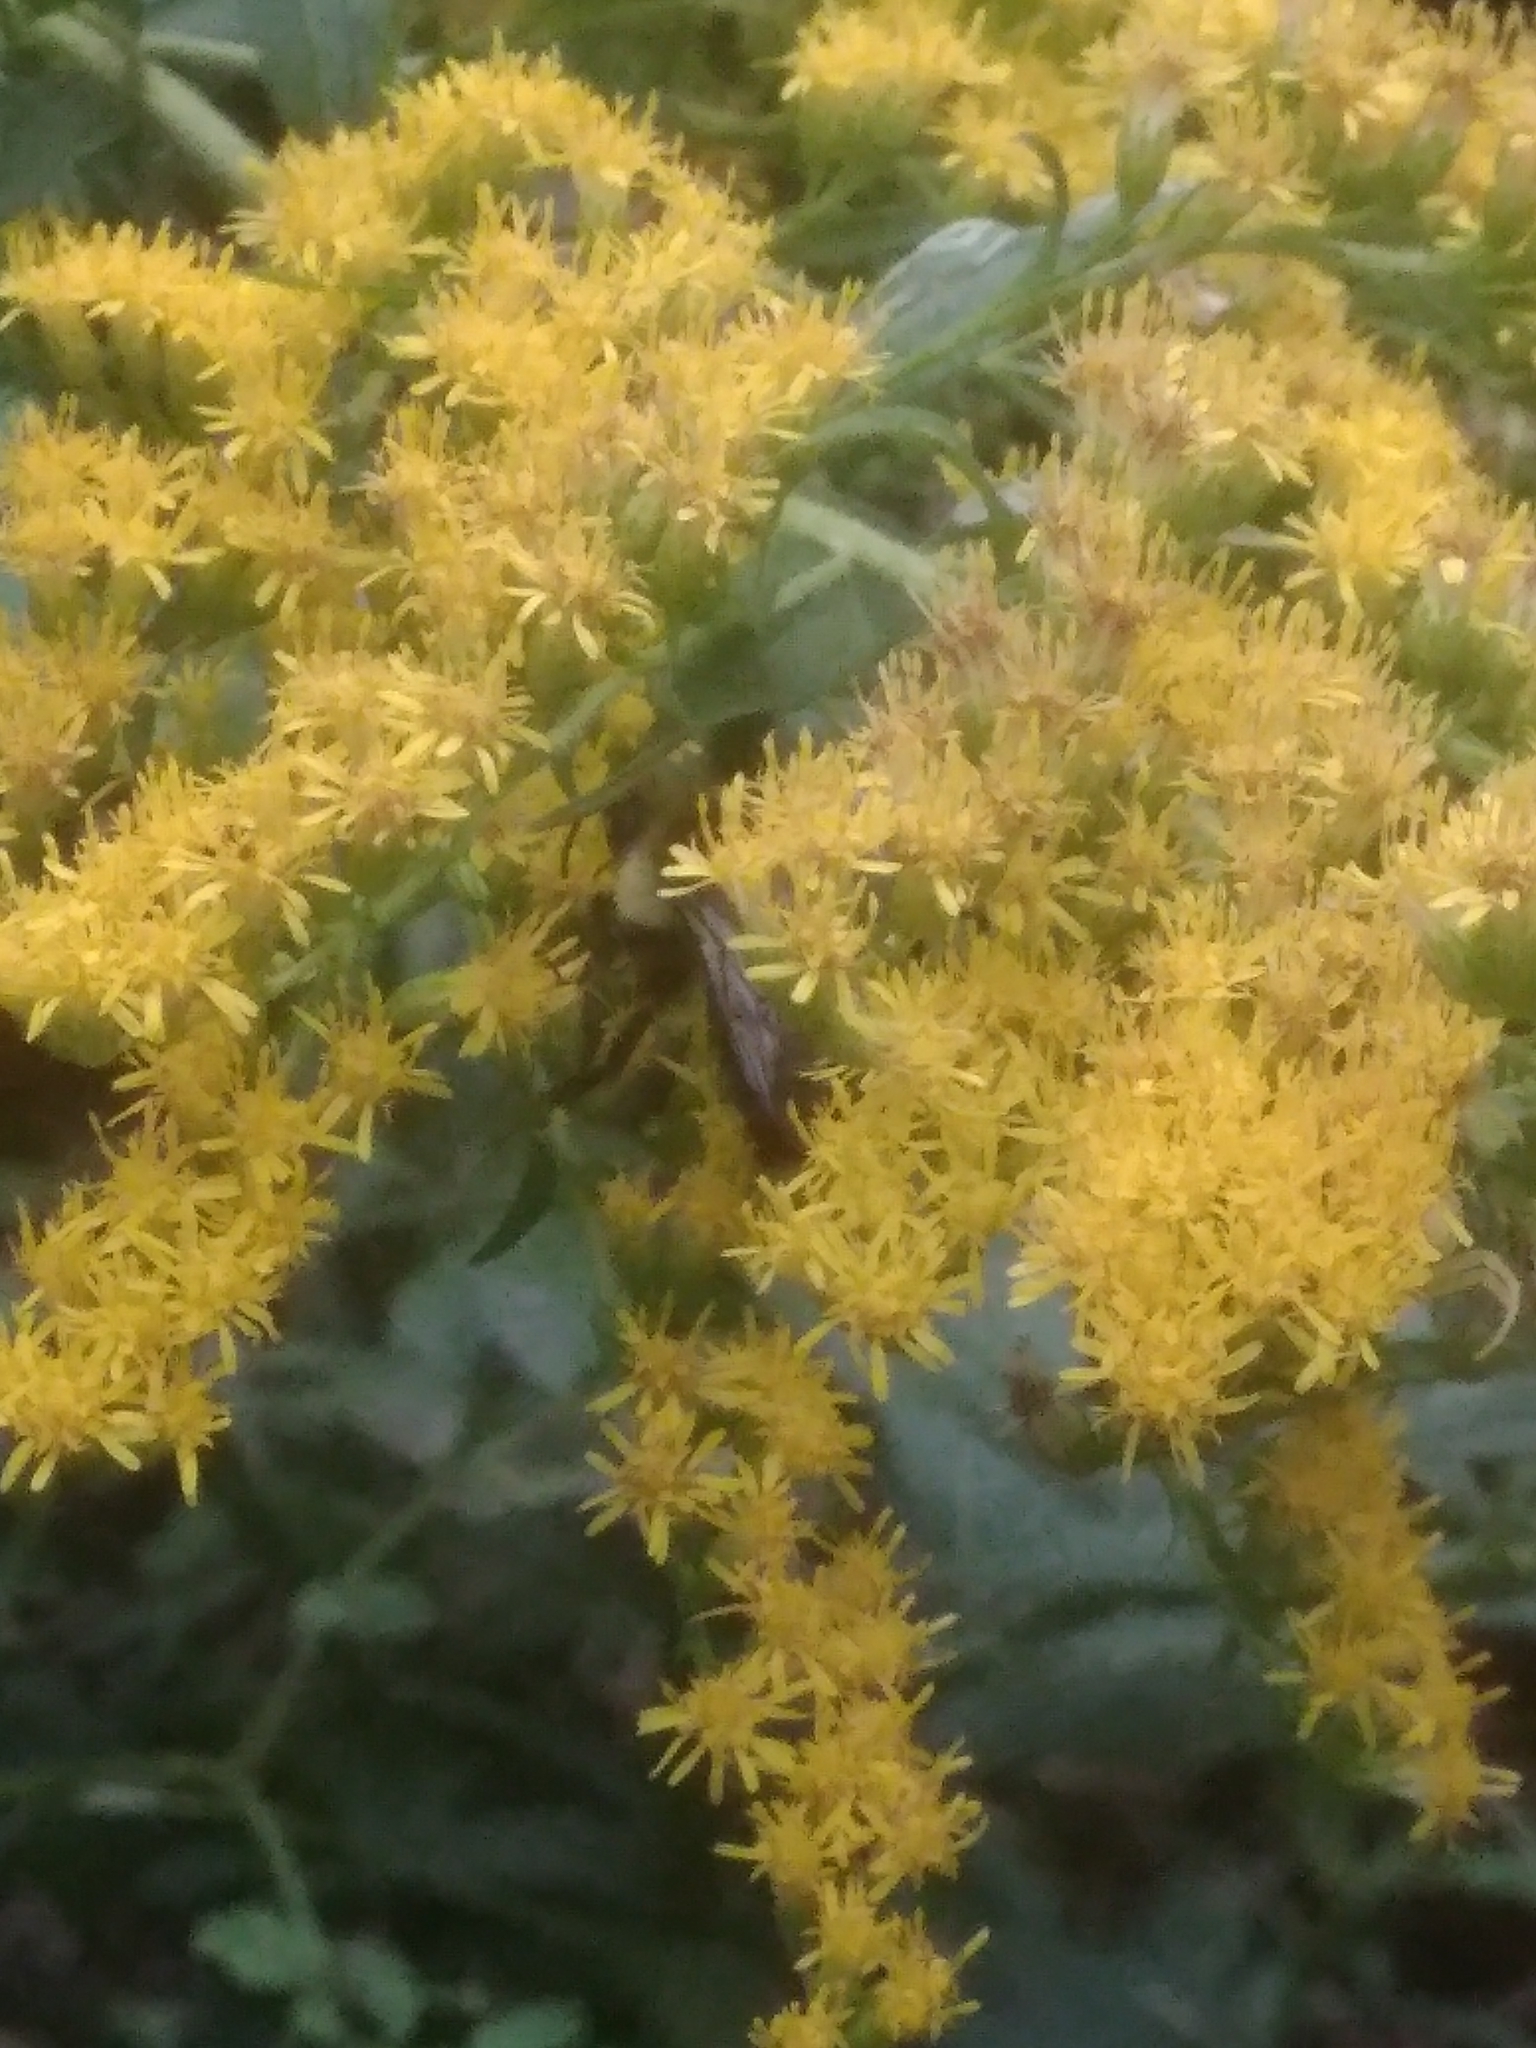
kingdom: Animalia
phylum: Arthropoda
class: Insecta
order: Hymenoptera
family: Apidae
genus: Bombus
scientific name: Bombus impatiens
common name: Common eastern bumble bee
